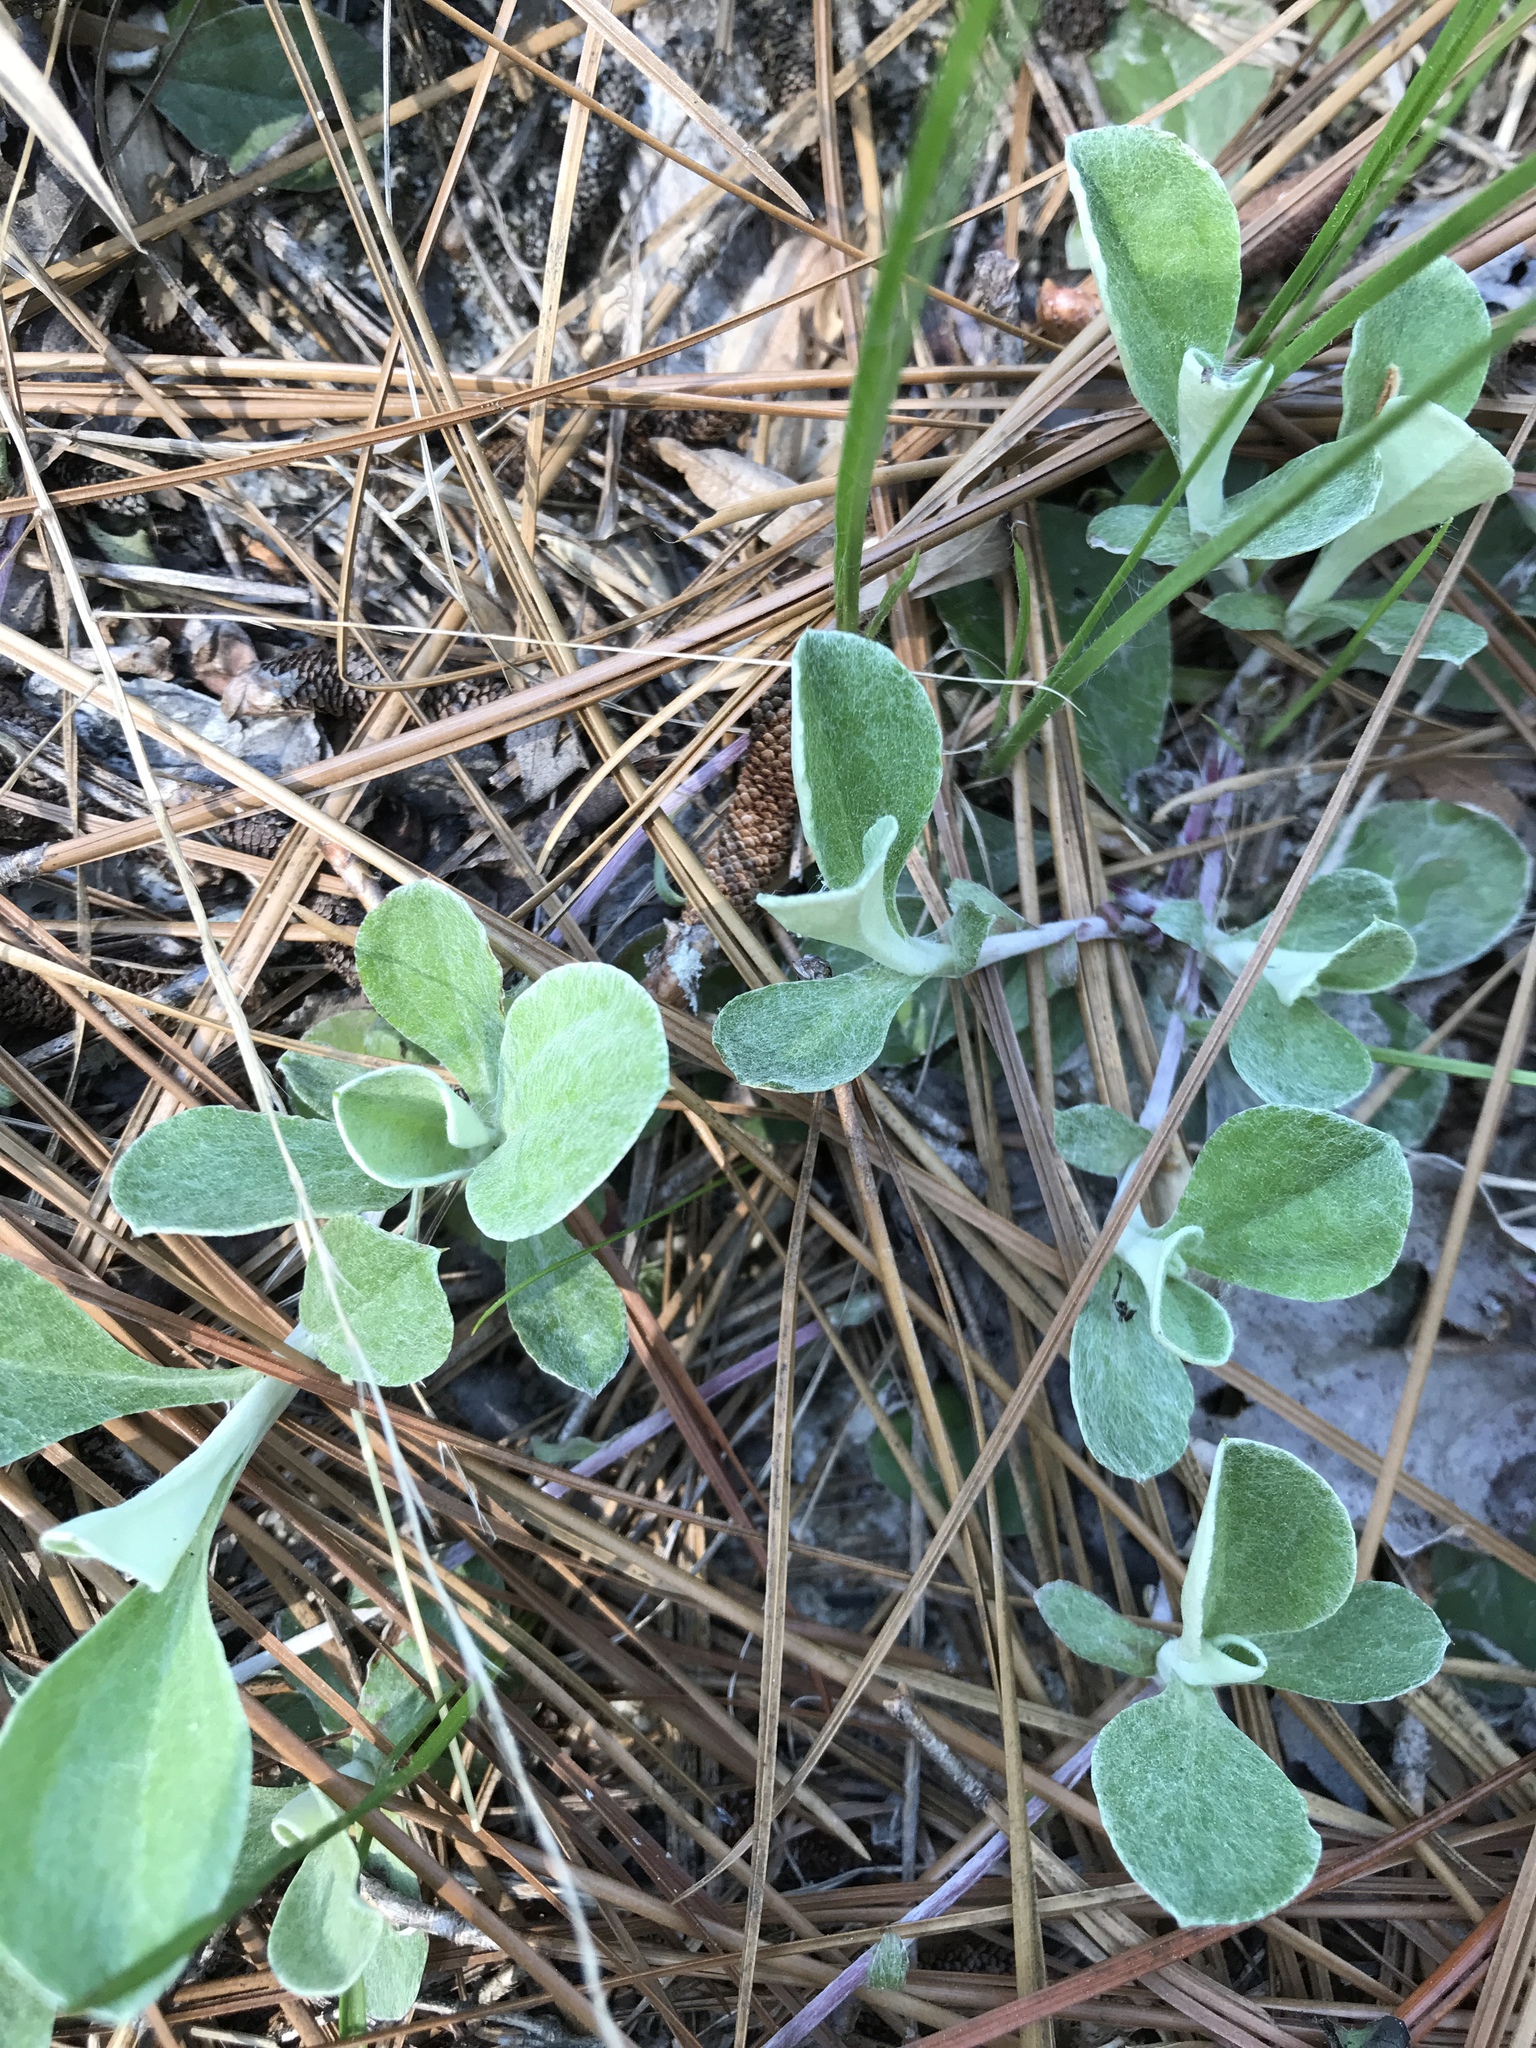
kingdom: Plantae
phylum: Tracheophyta
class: Magnoliopsida
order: Asterales
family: Asteraceae
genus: Antennaria
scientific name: Antennaria plantaginifolia
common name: Plantain-leaved pussytoes
